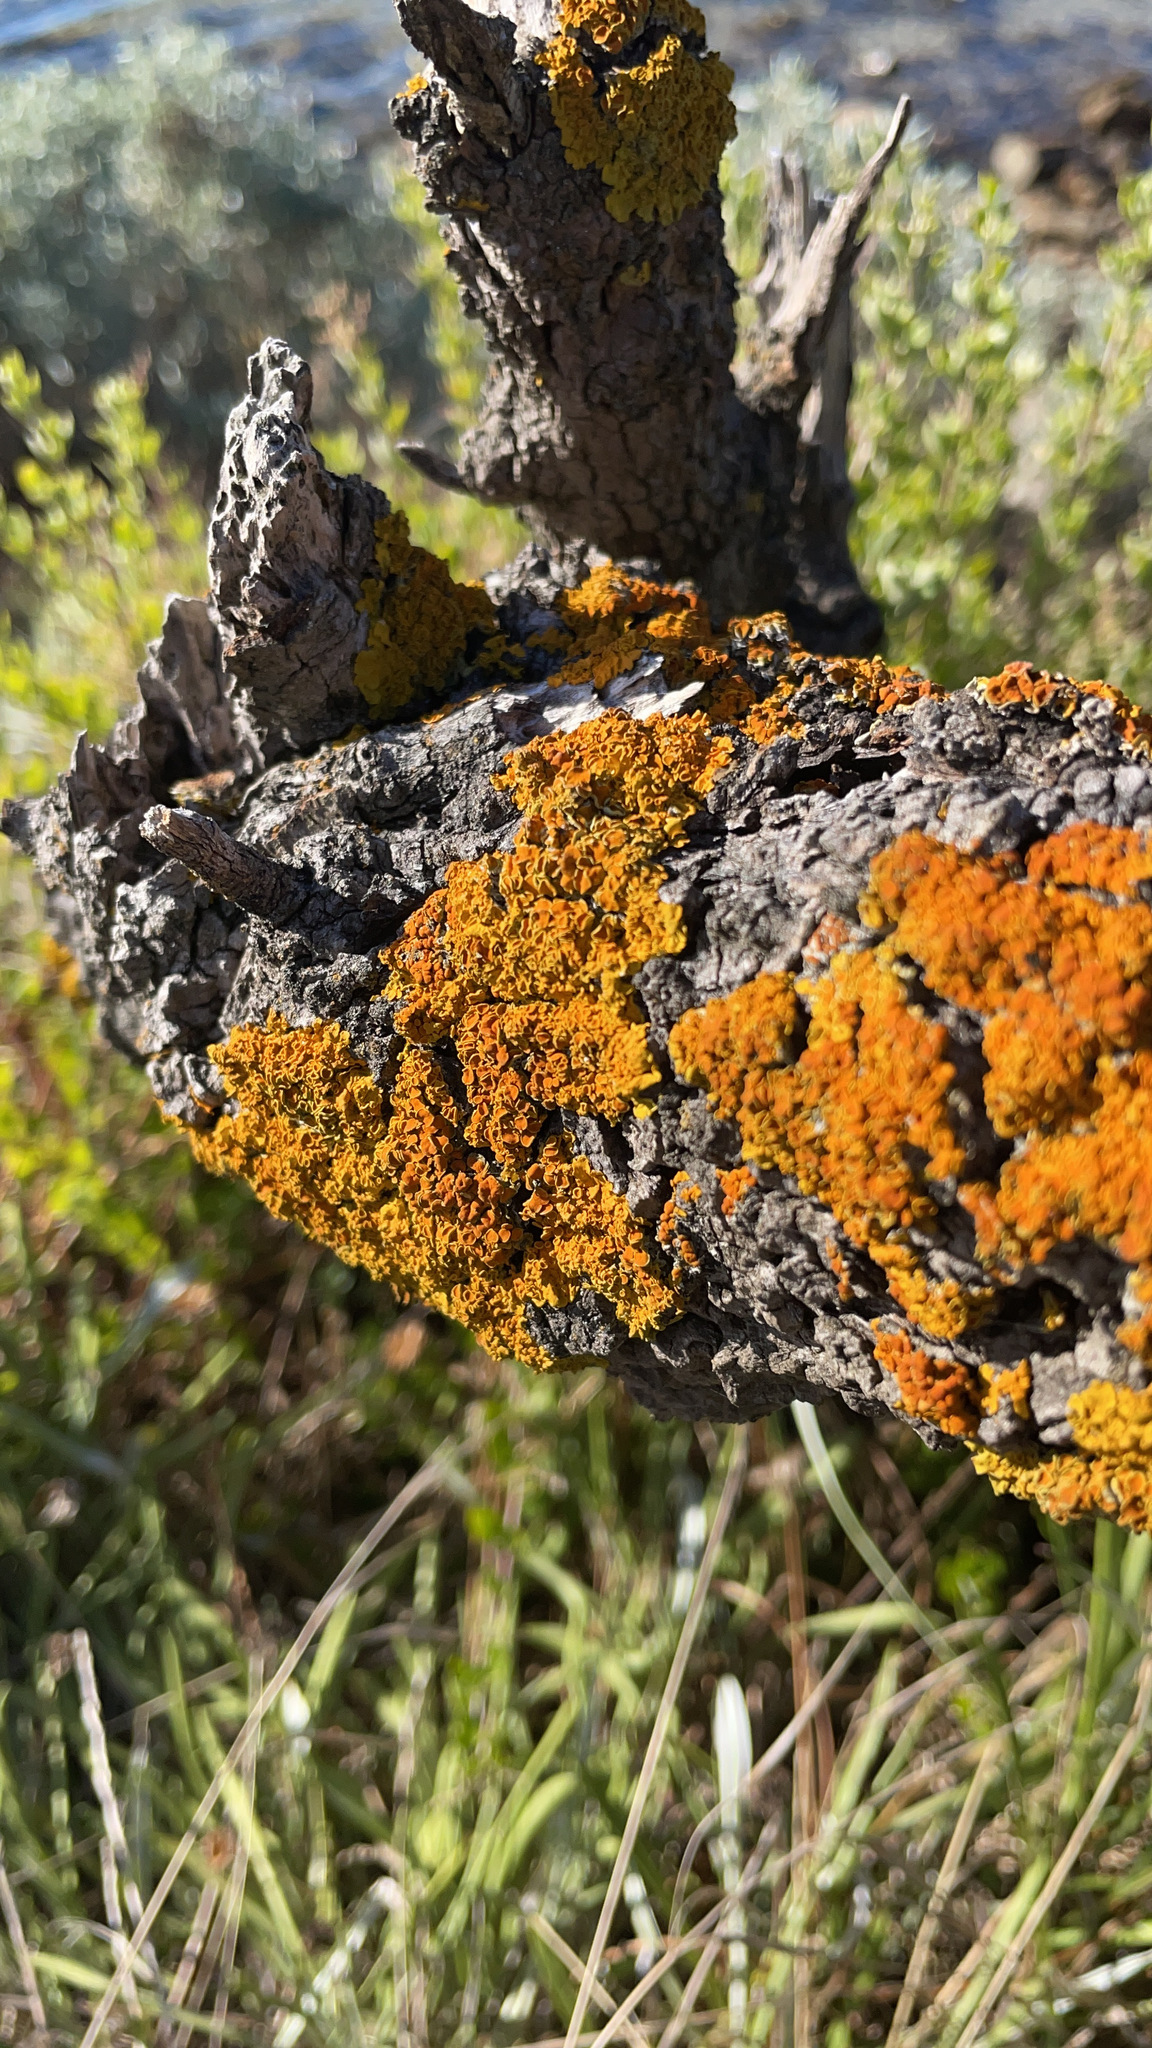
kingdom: Fungi
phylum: Ascomycota
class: Lecanoromycetes
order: Teloschistales
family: Teloschistaceae
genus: Xanthoria
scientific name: Xanthoria parietina
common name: Common orange lichen
